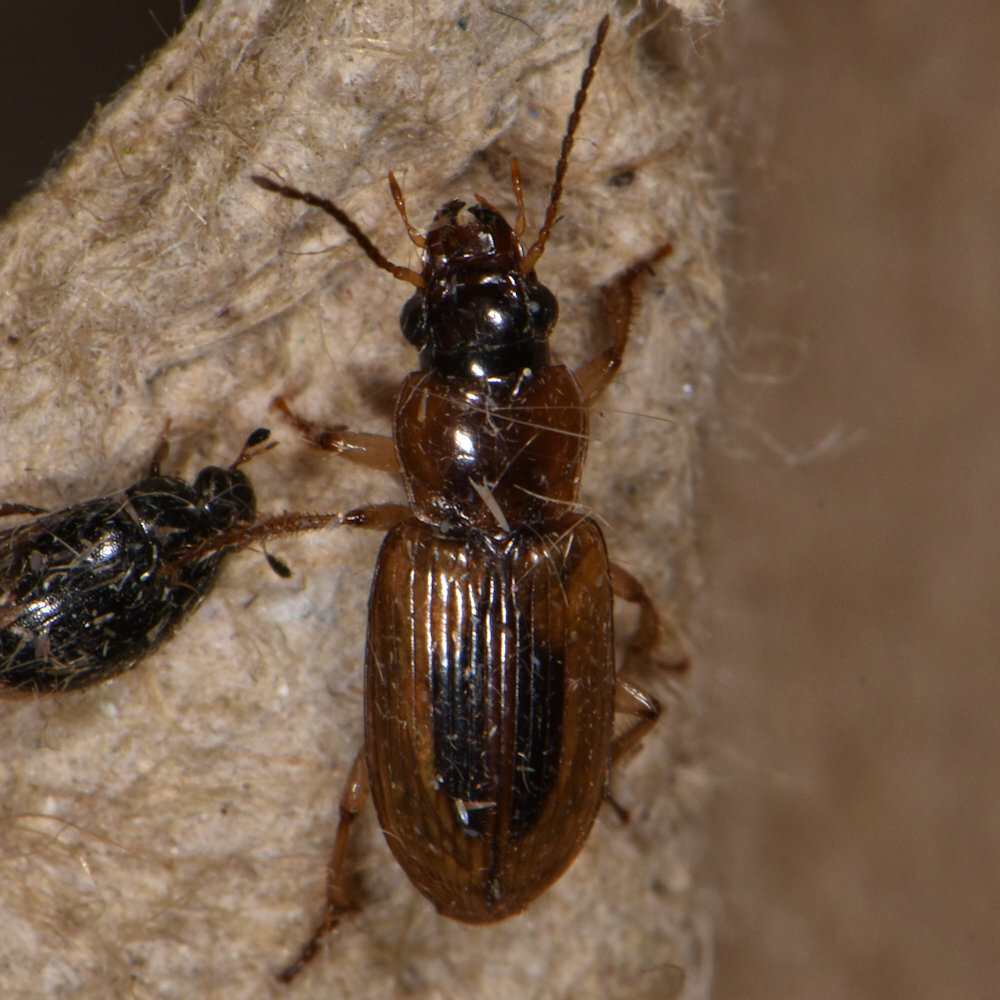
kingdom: Animalia
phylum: Arthropoda
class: Insecta
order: Coleoptera
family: Carabidae
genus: Stenolophus
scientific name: Stenolophus lecontei
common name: Leconte's seedcorn beetle
